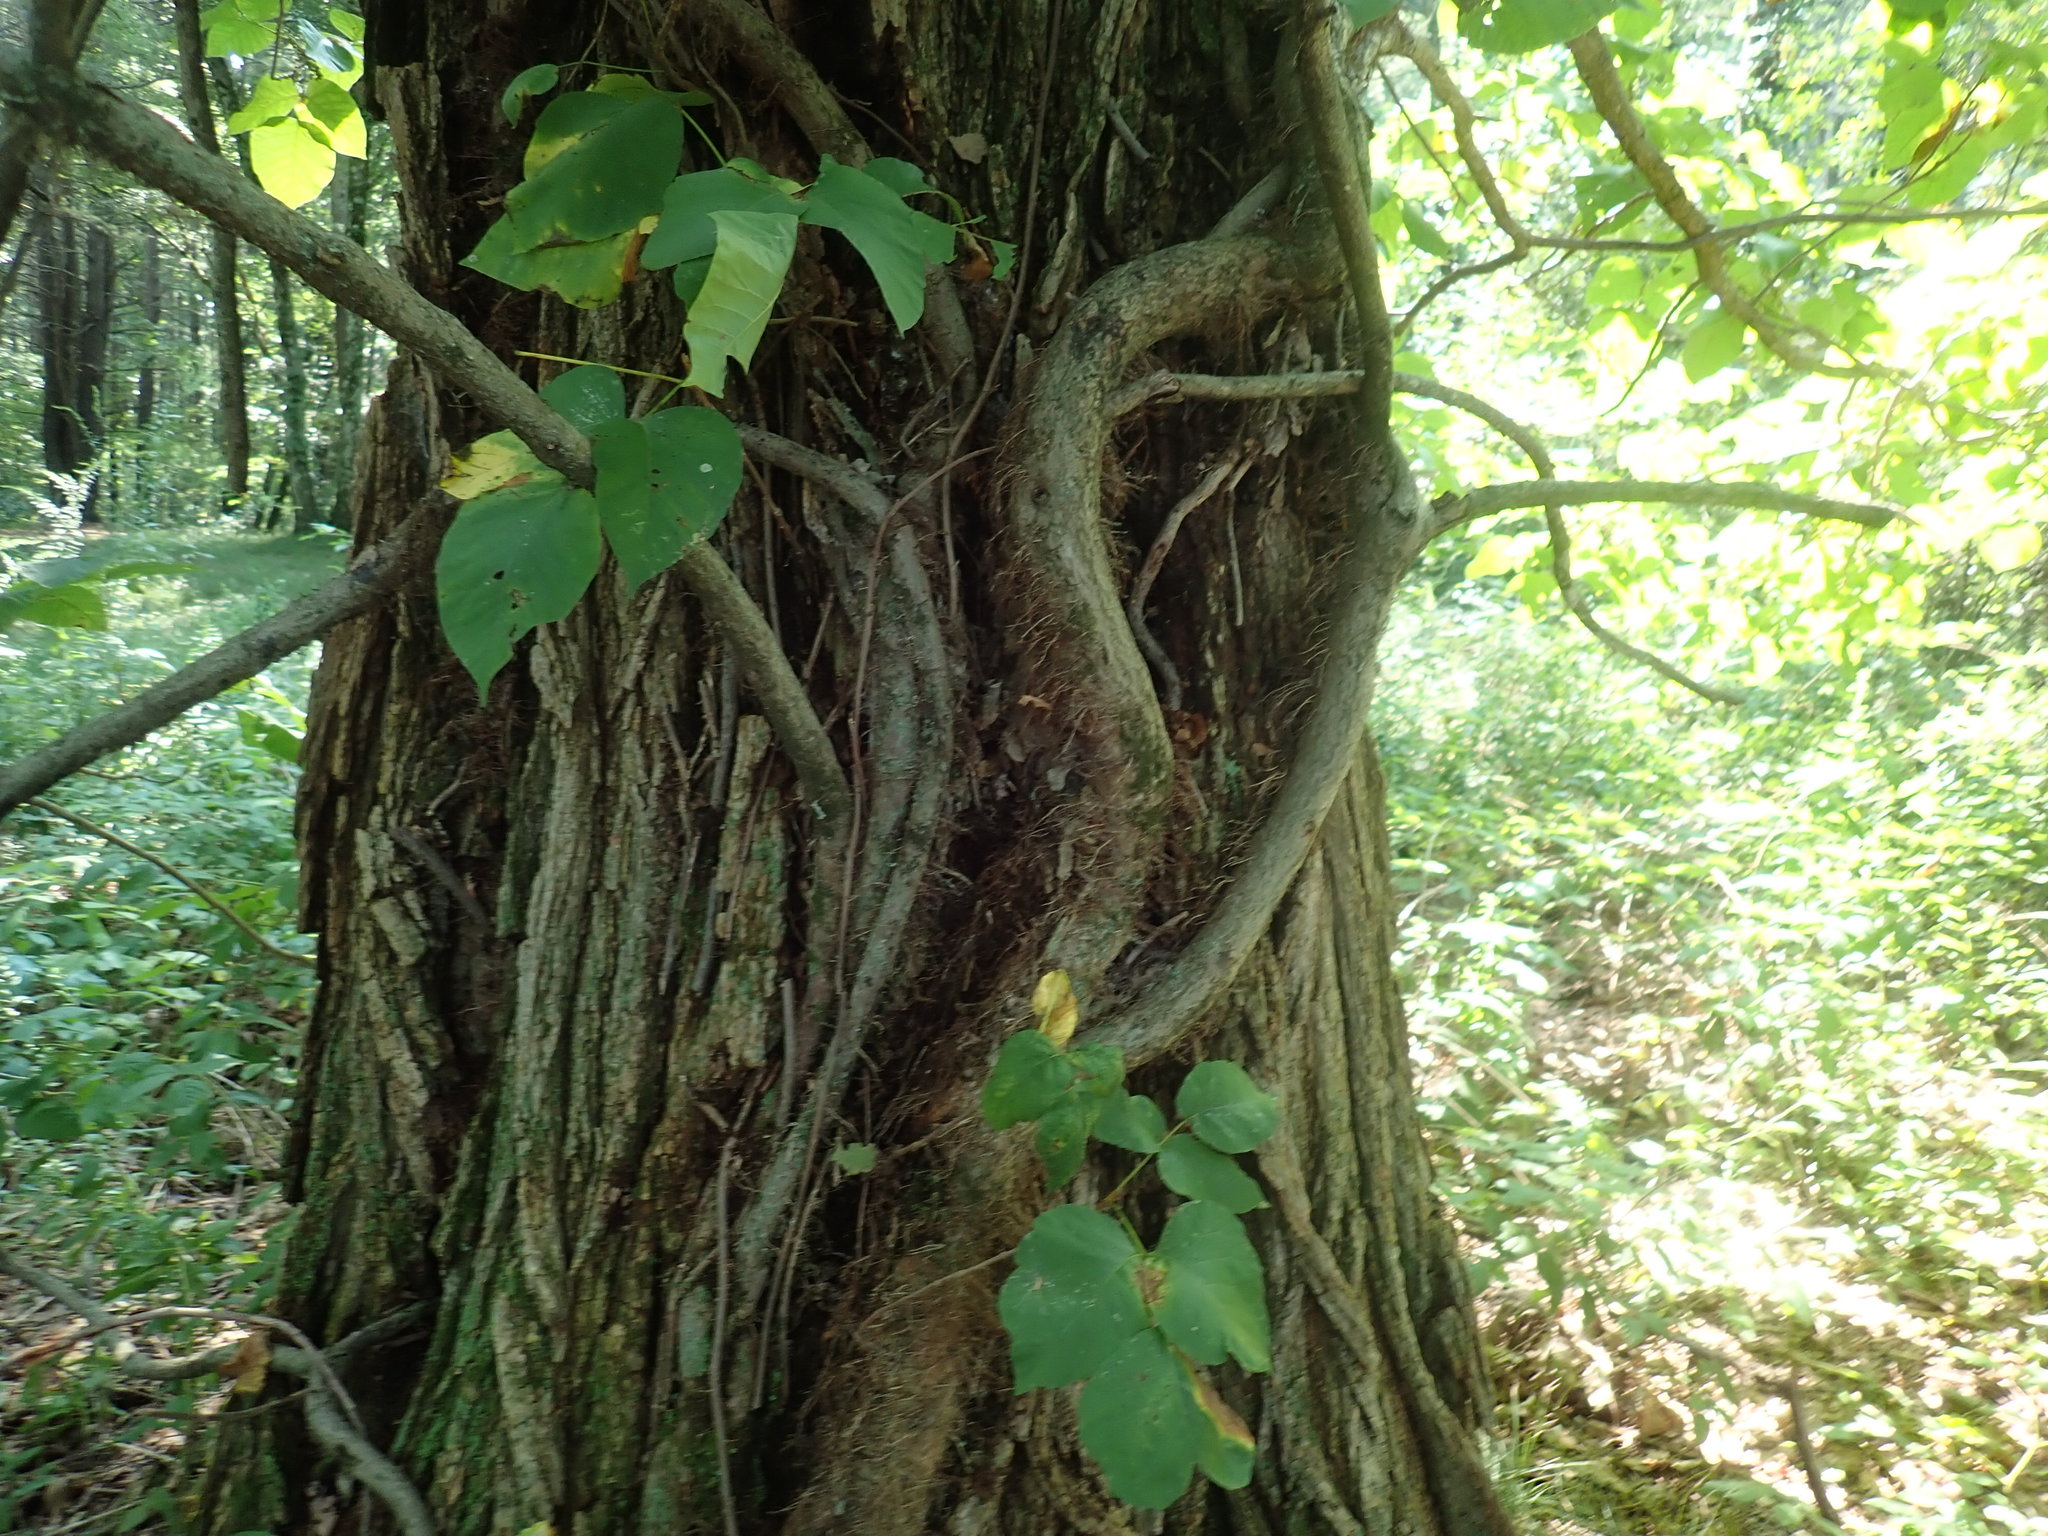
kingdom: Plantae
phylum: Tracheophyta
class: Magnoliopsida
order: Sapindales
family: Anacardiaceae
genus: Toxicodendron
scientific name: Toxicodendron radicans
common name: Poison ivy
